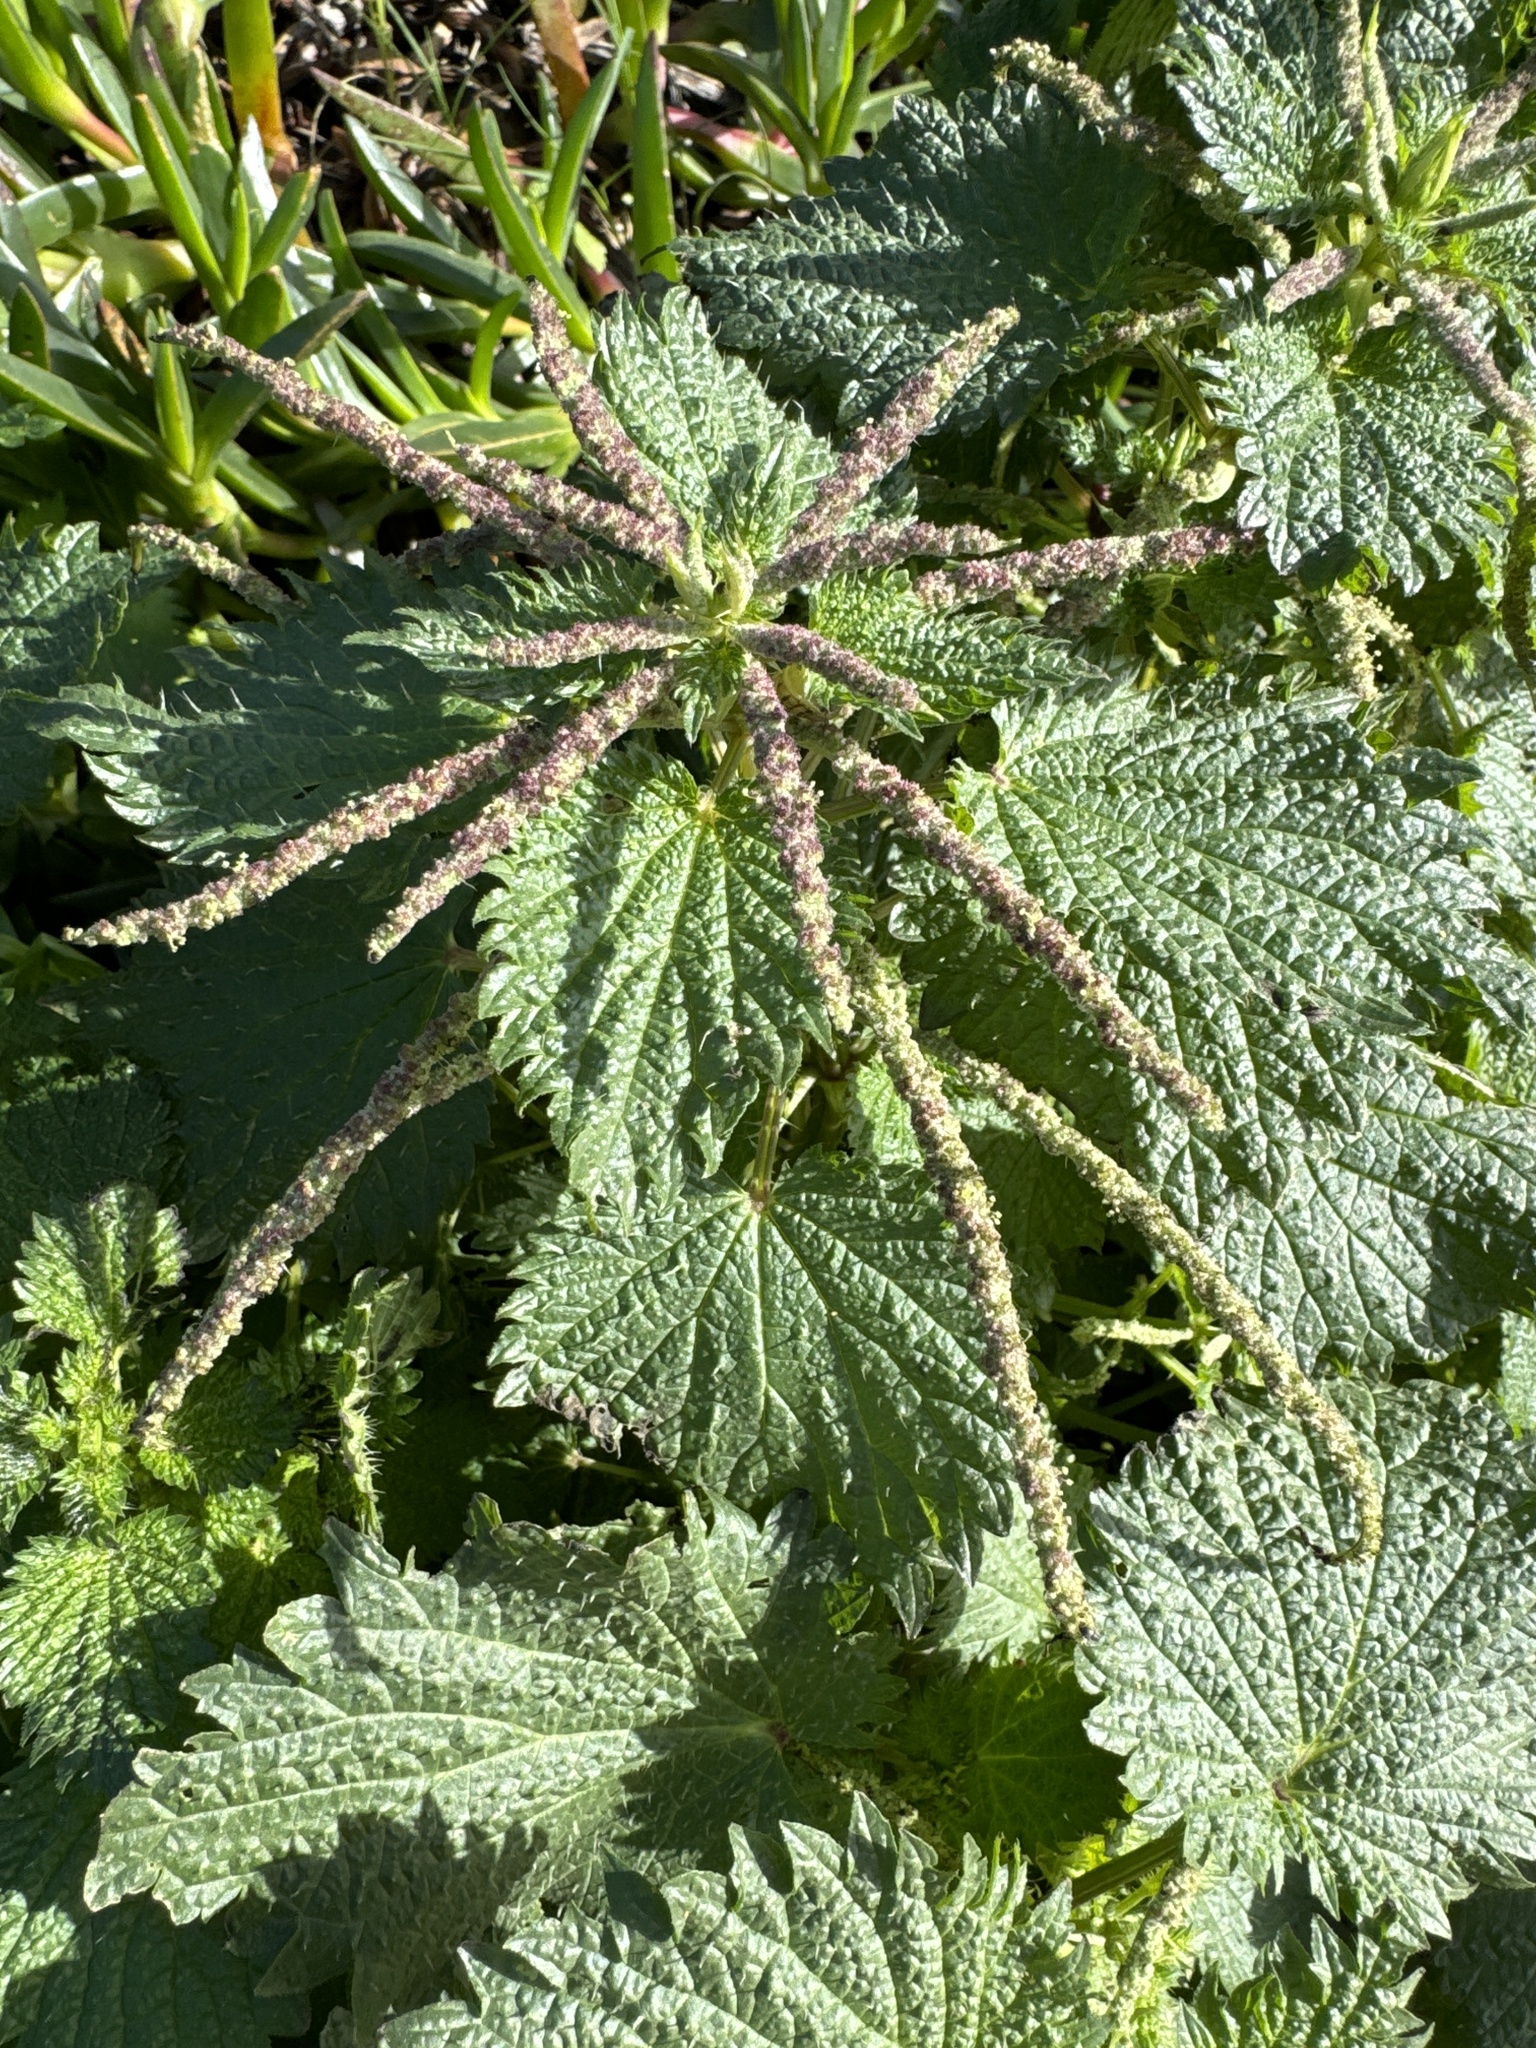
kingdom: Plantae
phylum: Tracheophyta
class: Magnoliopsida
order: Rosales
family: Urticaceae
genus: Urtica
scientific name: Urtica membranacea
